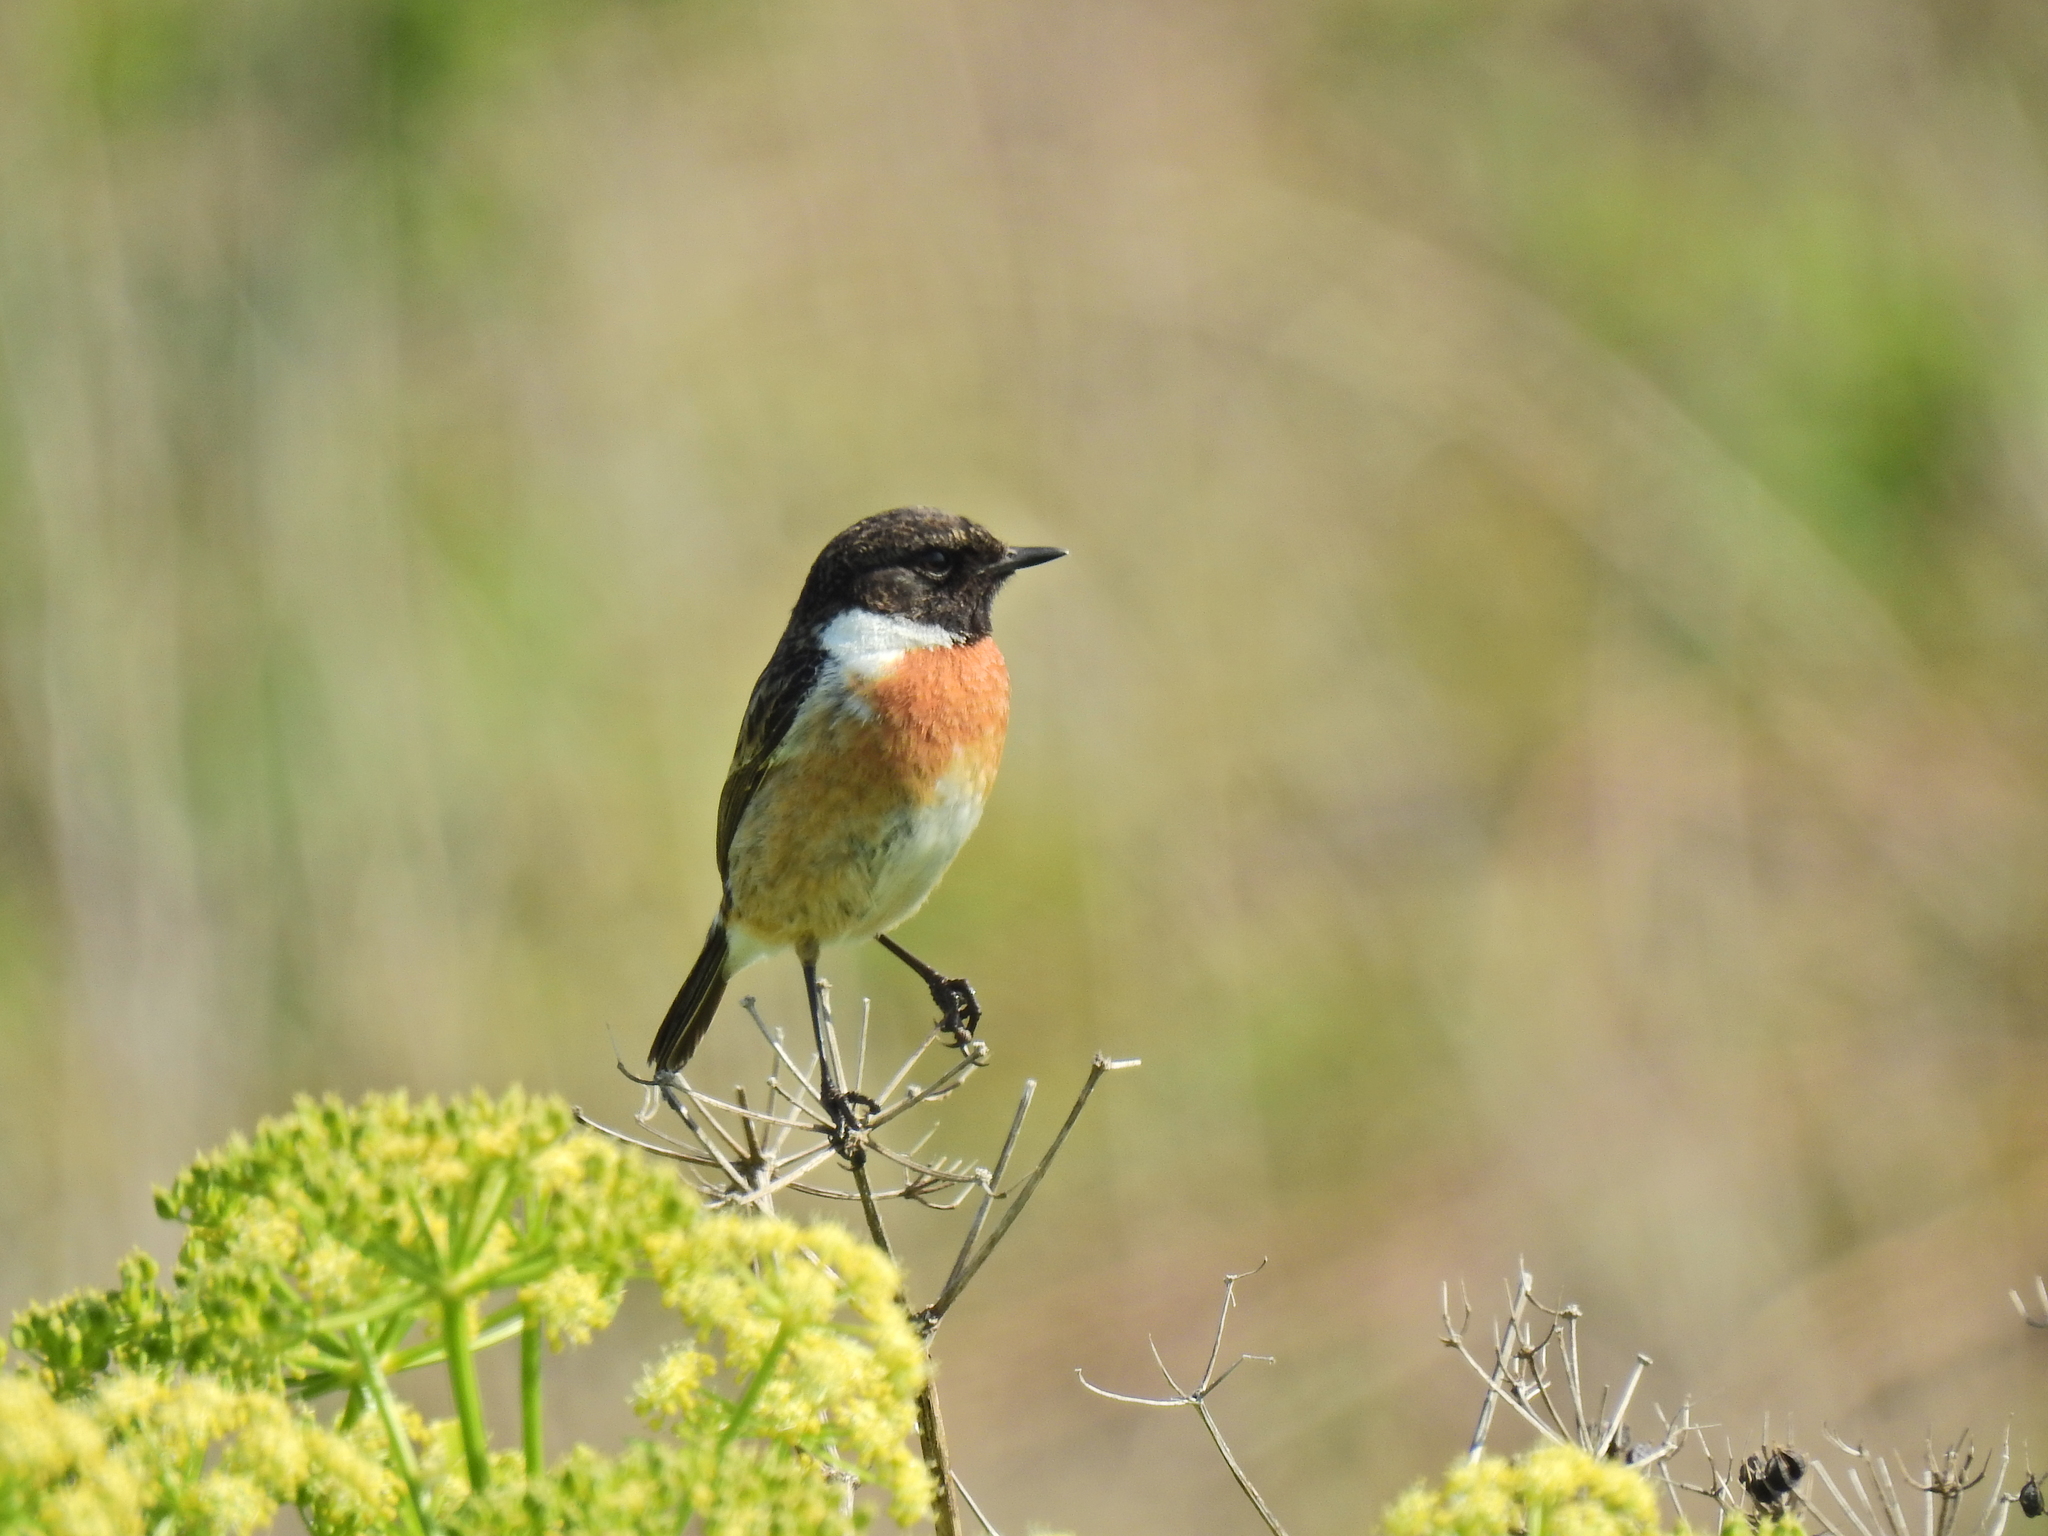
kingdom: Animalia
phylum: Chordata
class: Aves
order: Passeriformes
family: Muscicapidae
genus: Saxicola
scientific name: Saxicola rubicola
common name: European stonechat
